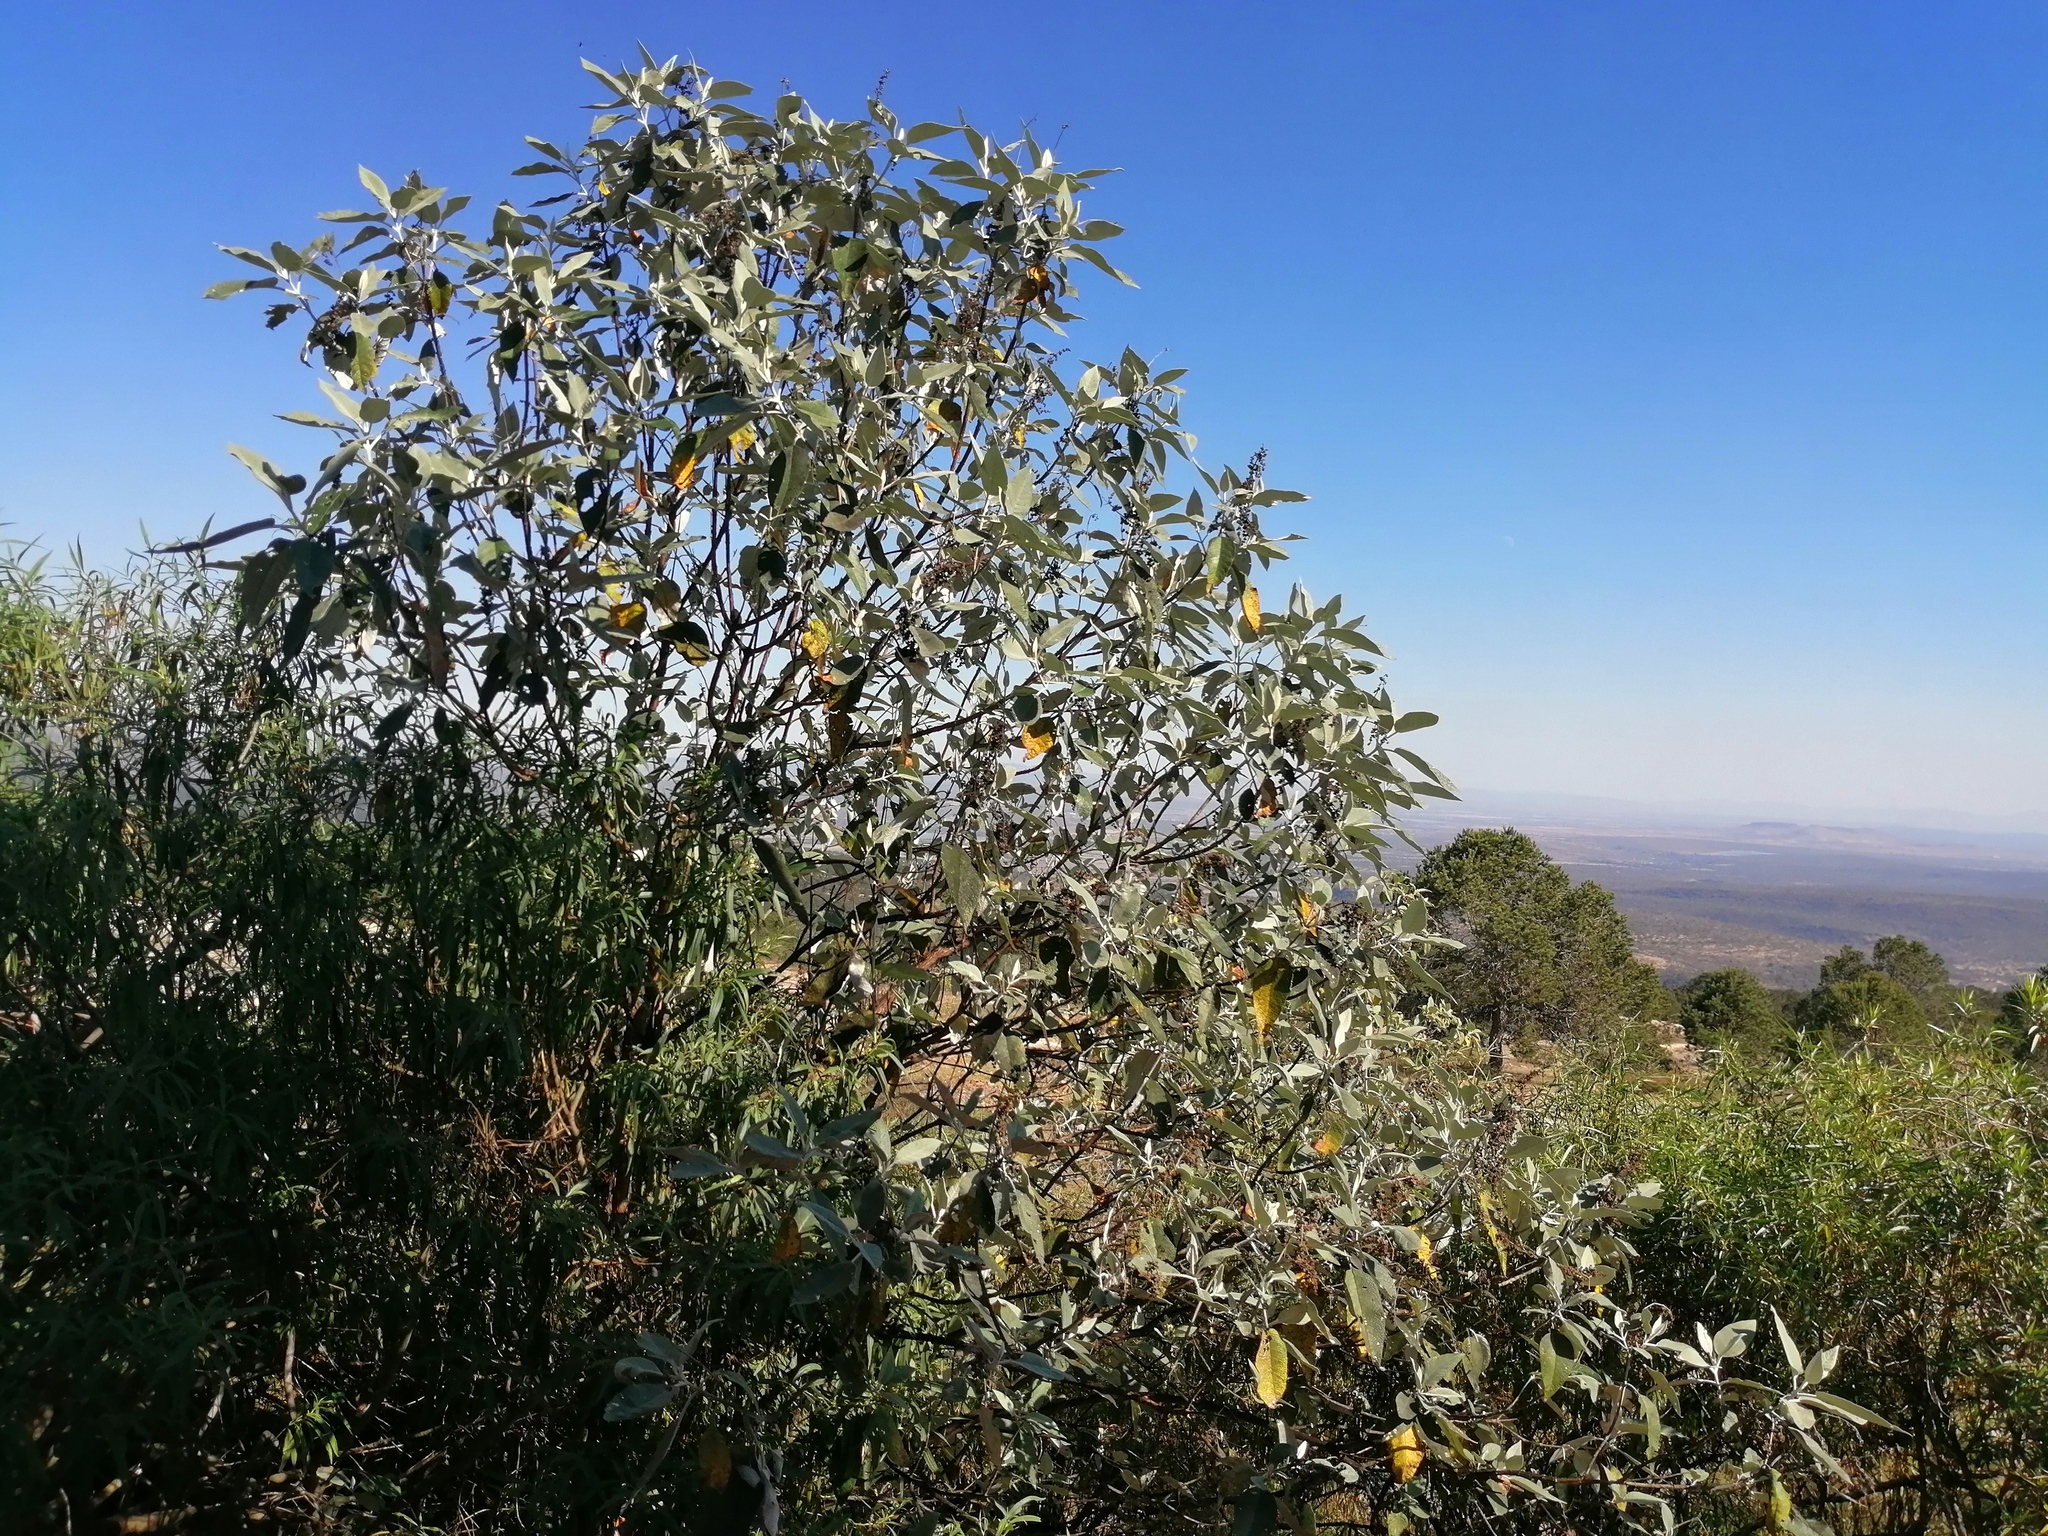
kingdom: Plantae
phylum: Tracheophyta
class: Magnoliopsida
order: Lamiales
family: Scrophulariaceae
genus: Buddleja
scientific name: Buddleja cordata
